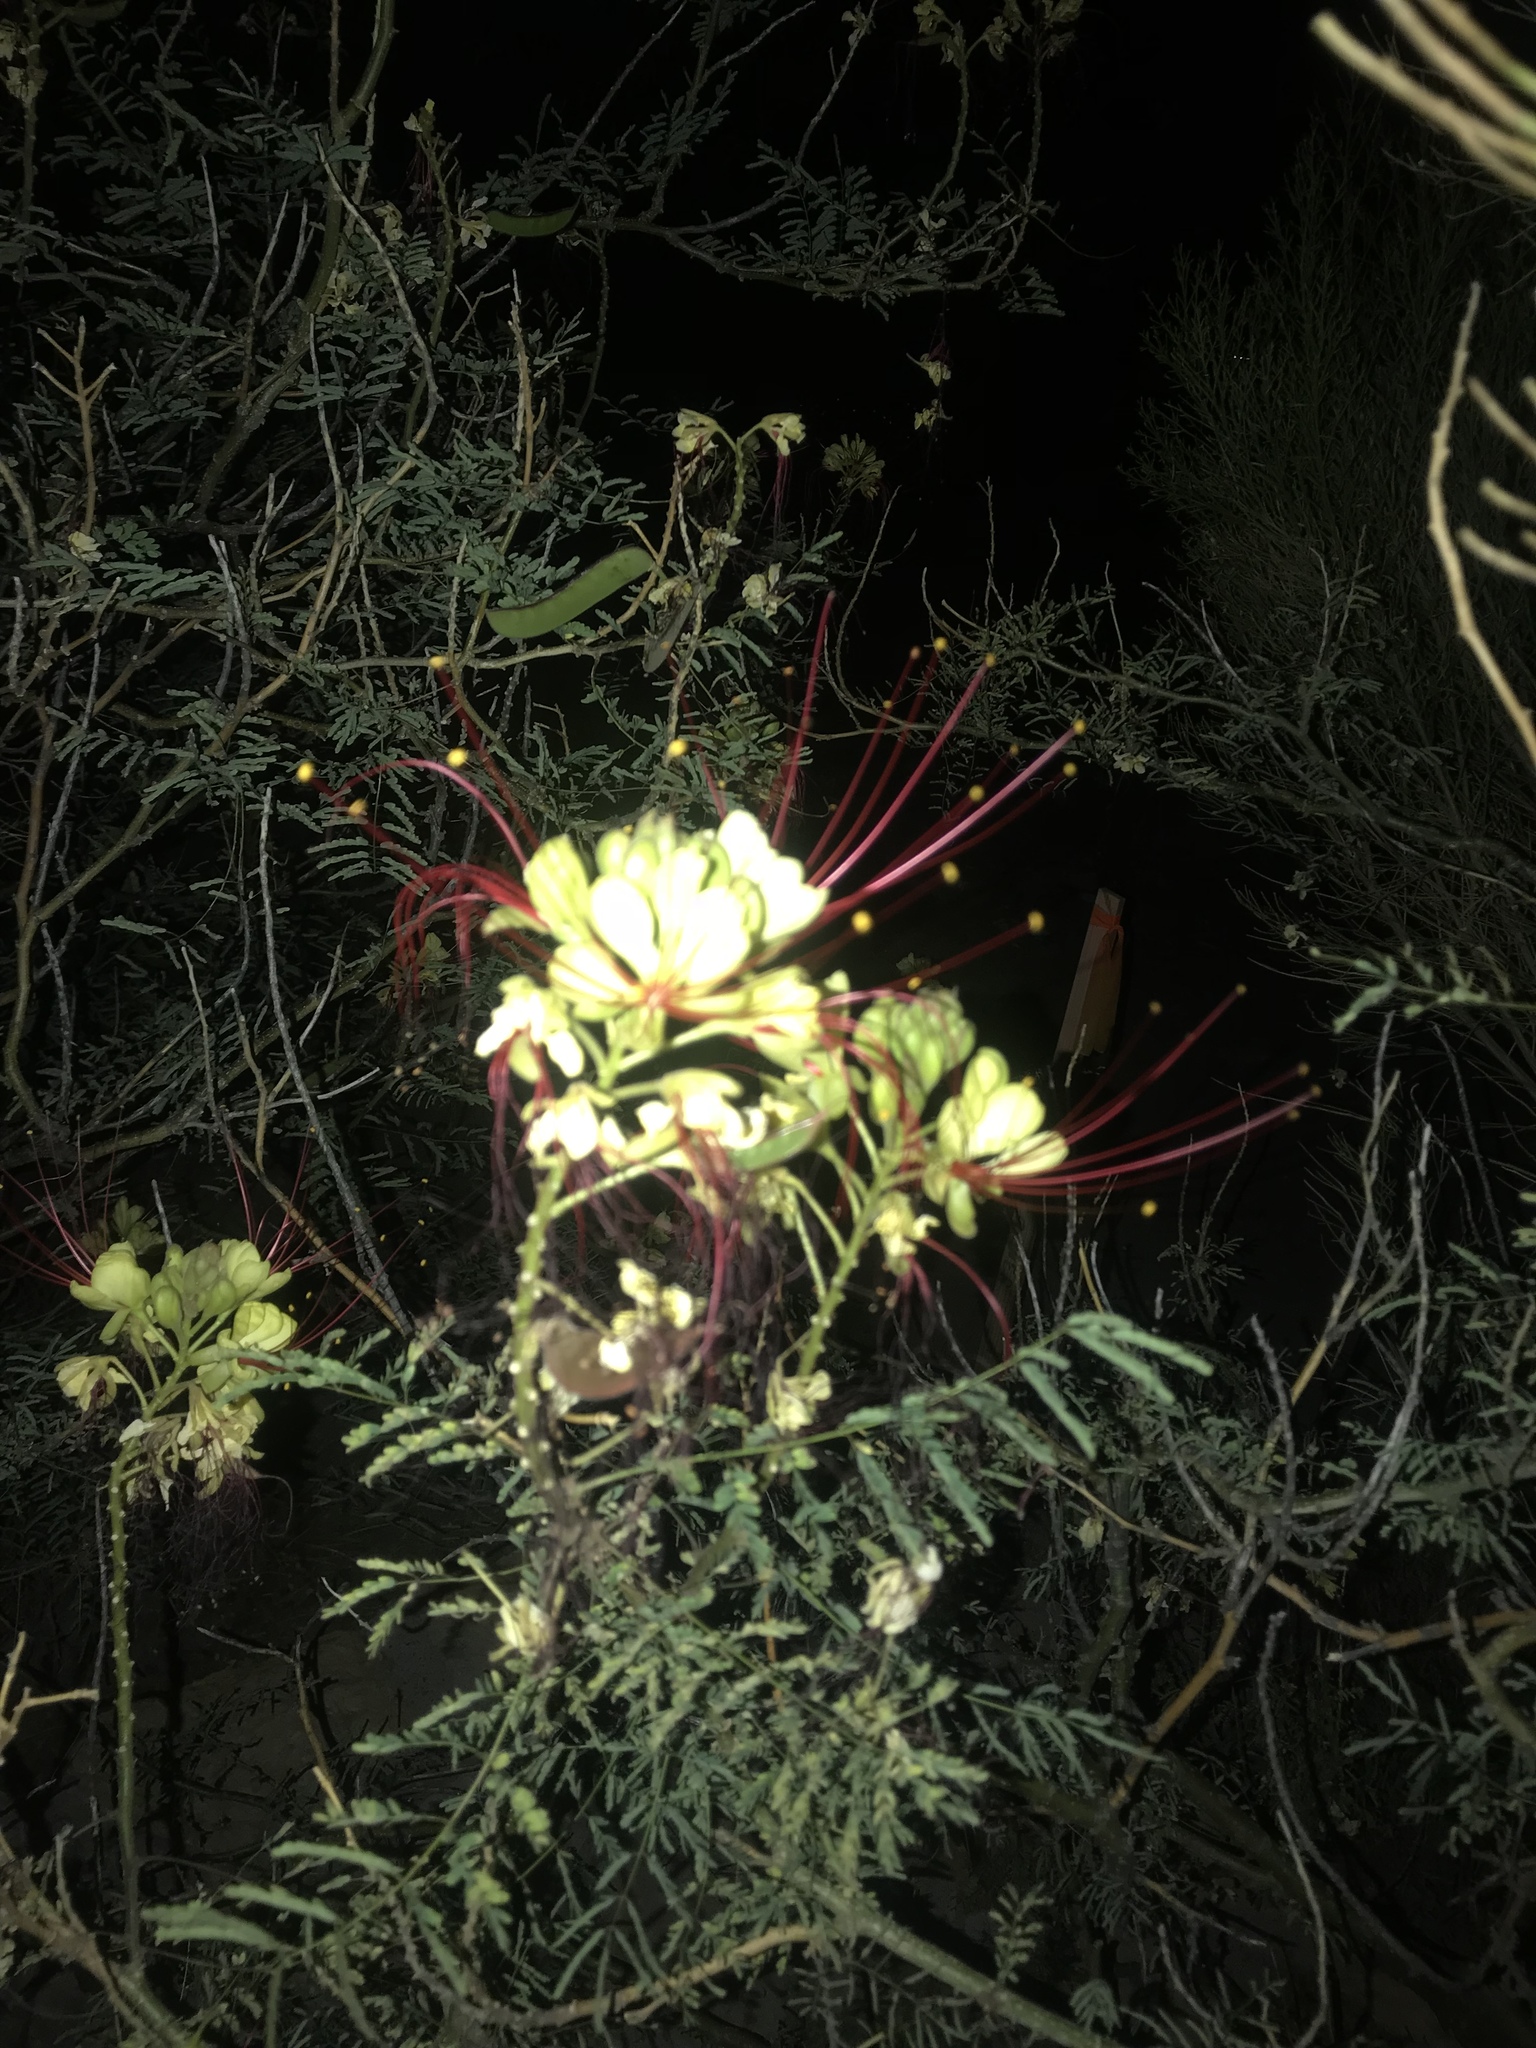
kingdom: Plantae
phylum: Tracheophyta
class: Magnoliopsida
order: Fabales
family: Fabaceae
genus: Erythrostemon
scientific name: Erythrostemon gilliesii
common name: Bird-of-paradise shrub
